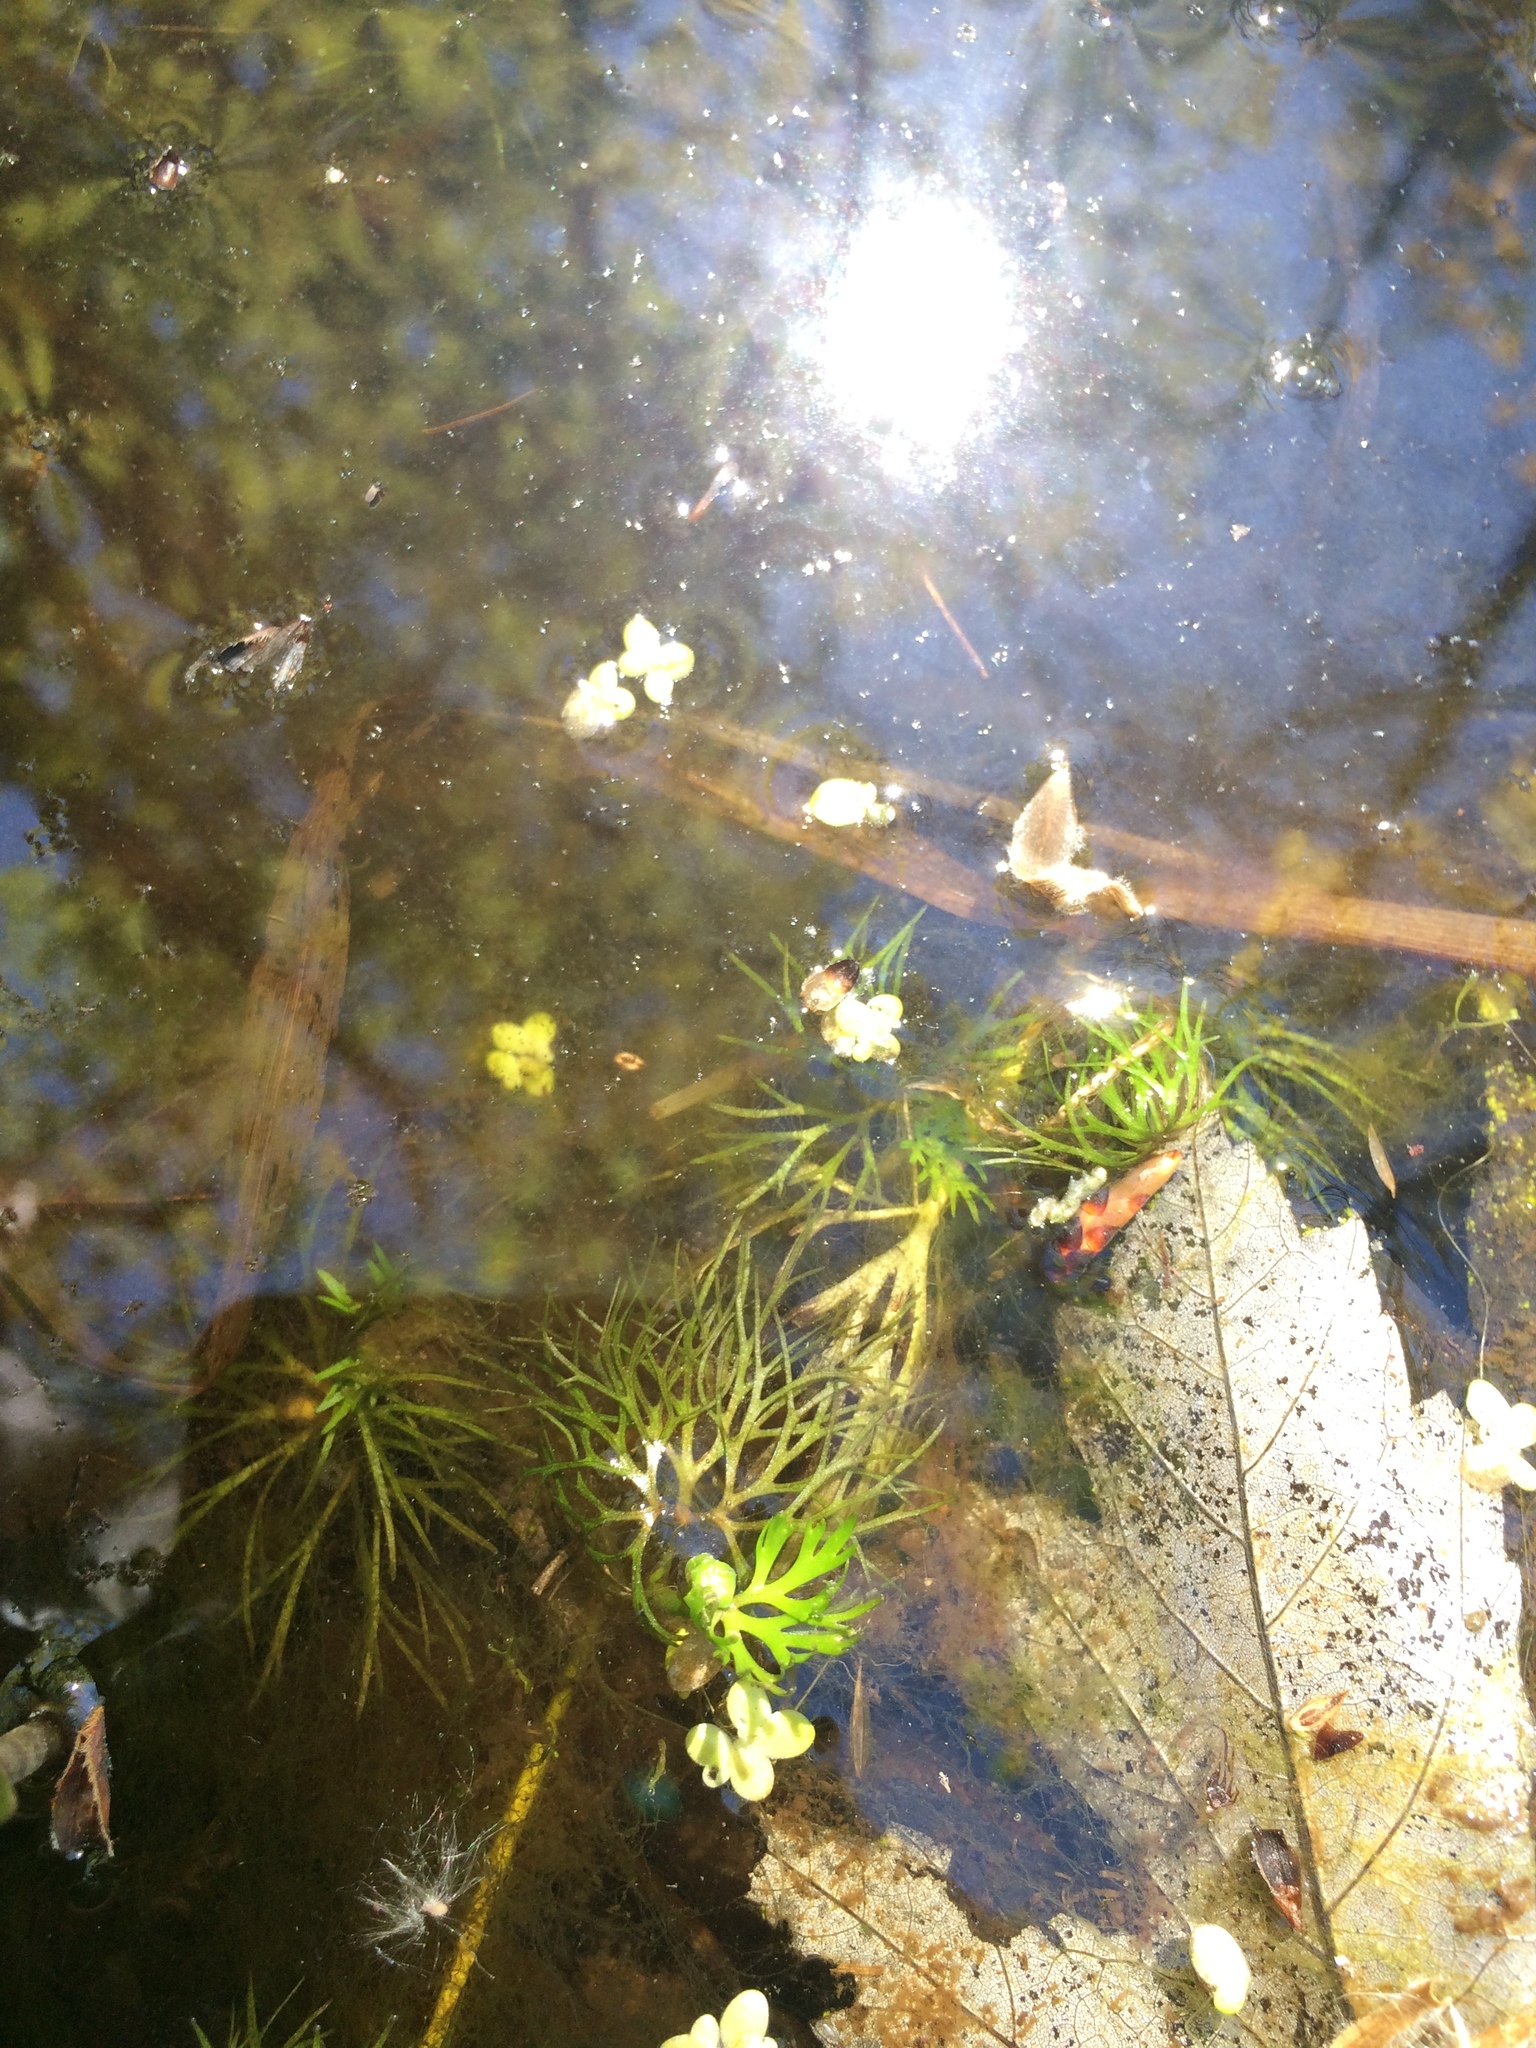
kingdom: Plantae
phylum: Tracheophyta
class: Magnoliopsida
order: Ranunculales
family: Ranunculaceae
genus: Ranunculus
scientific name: Ranunculus flabellaris
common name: Yellow water-crowfoot
